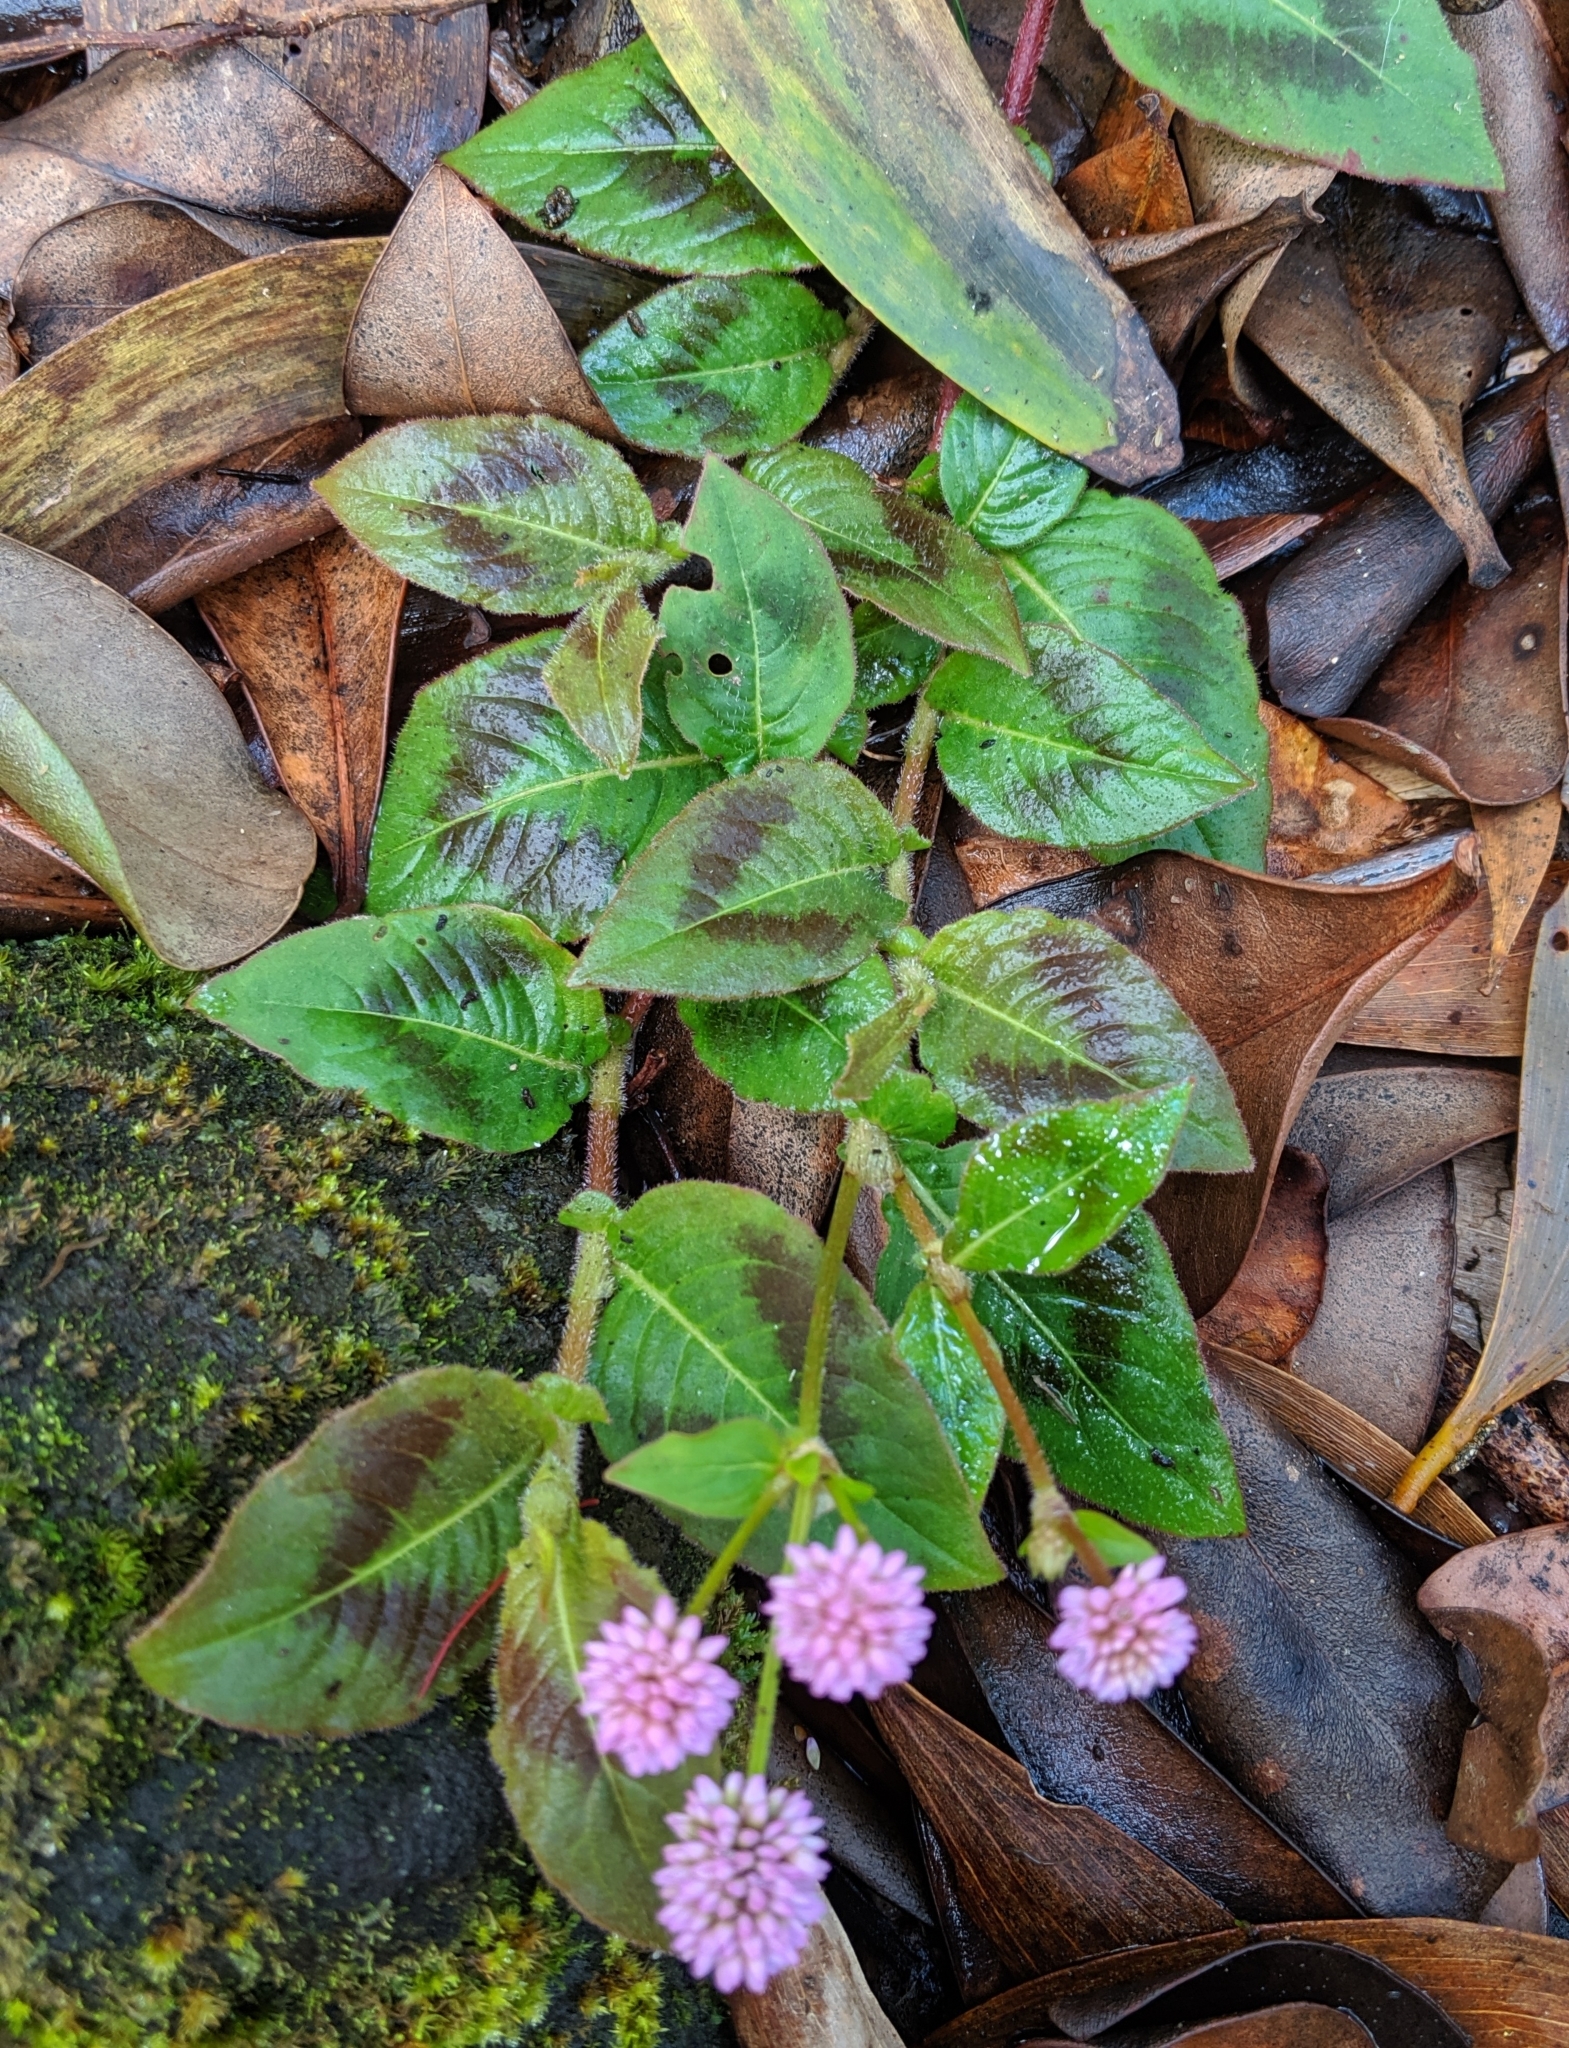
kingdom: Plantae
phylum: Tracheophyta
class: Magnoliopsida
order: Caryophyllales
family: Polygonaceae
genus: Persicaria
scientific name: Persicaria capitata
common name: Pinkhead smartweed
